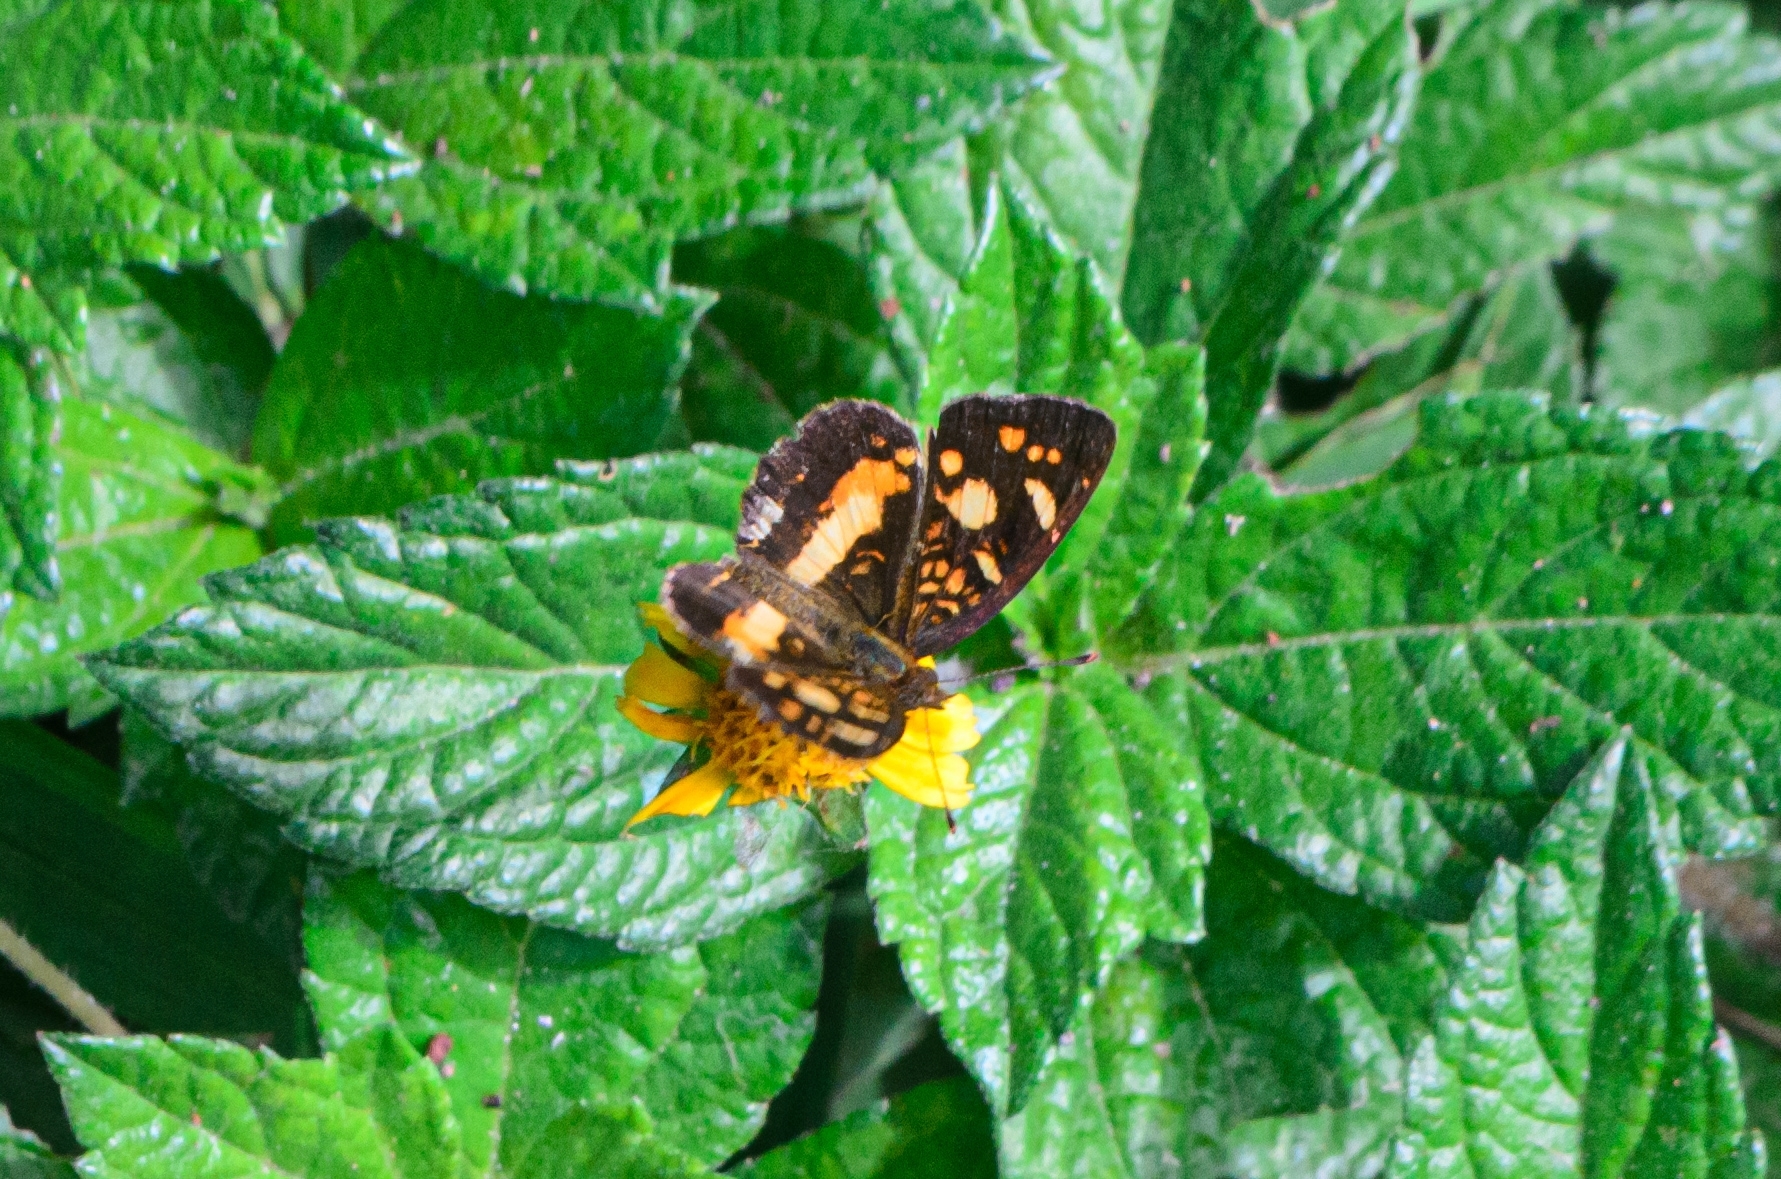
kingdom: Animalia
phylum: Arthropoda
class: Insecta
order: Lepidoptera
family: Nymphalidae
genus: Ortilia
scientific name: Ortilia orthia
